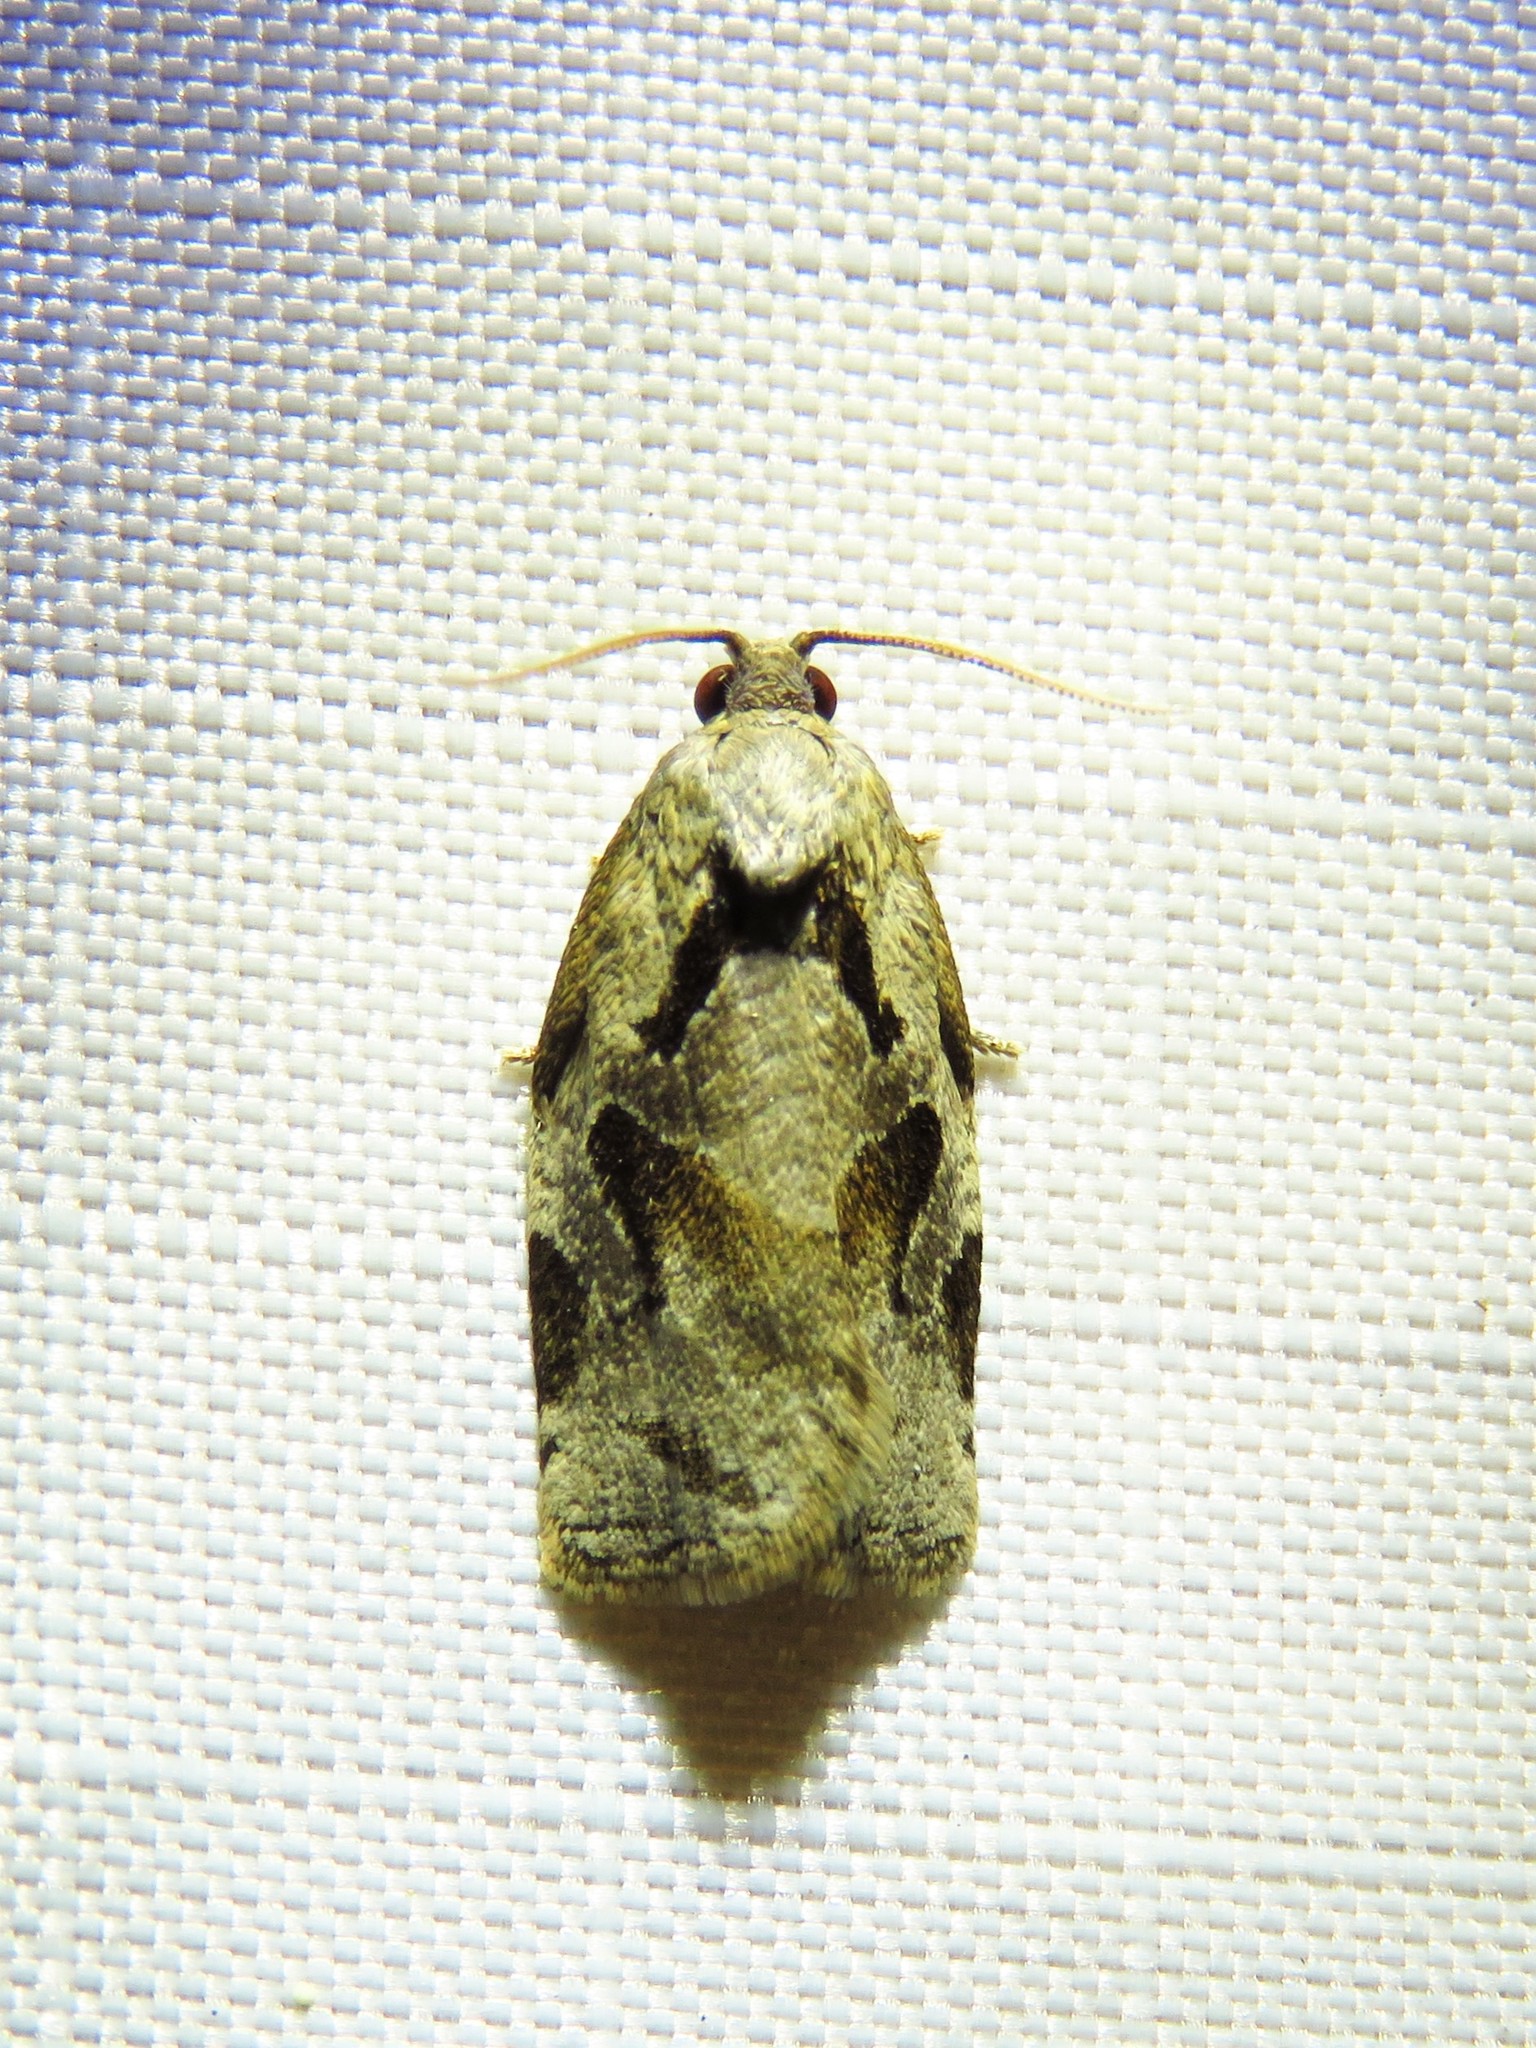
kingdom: Animalia
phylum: Arthropoda
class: Insecta
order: Lepidoptera
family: Tortricidae
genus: Archips
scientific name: Archips grisea
